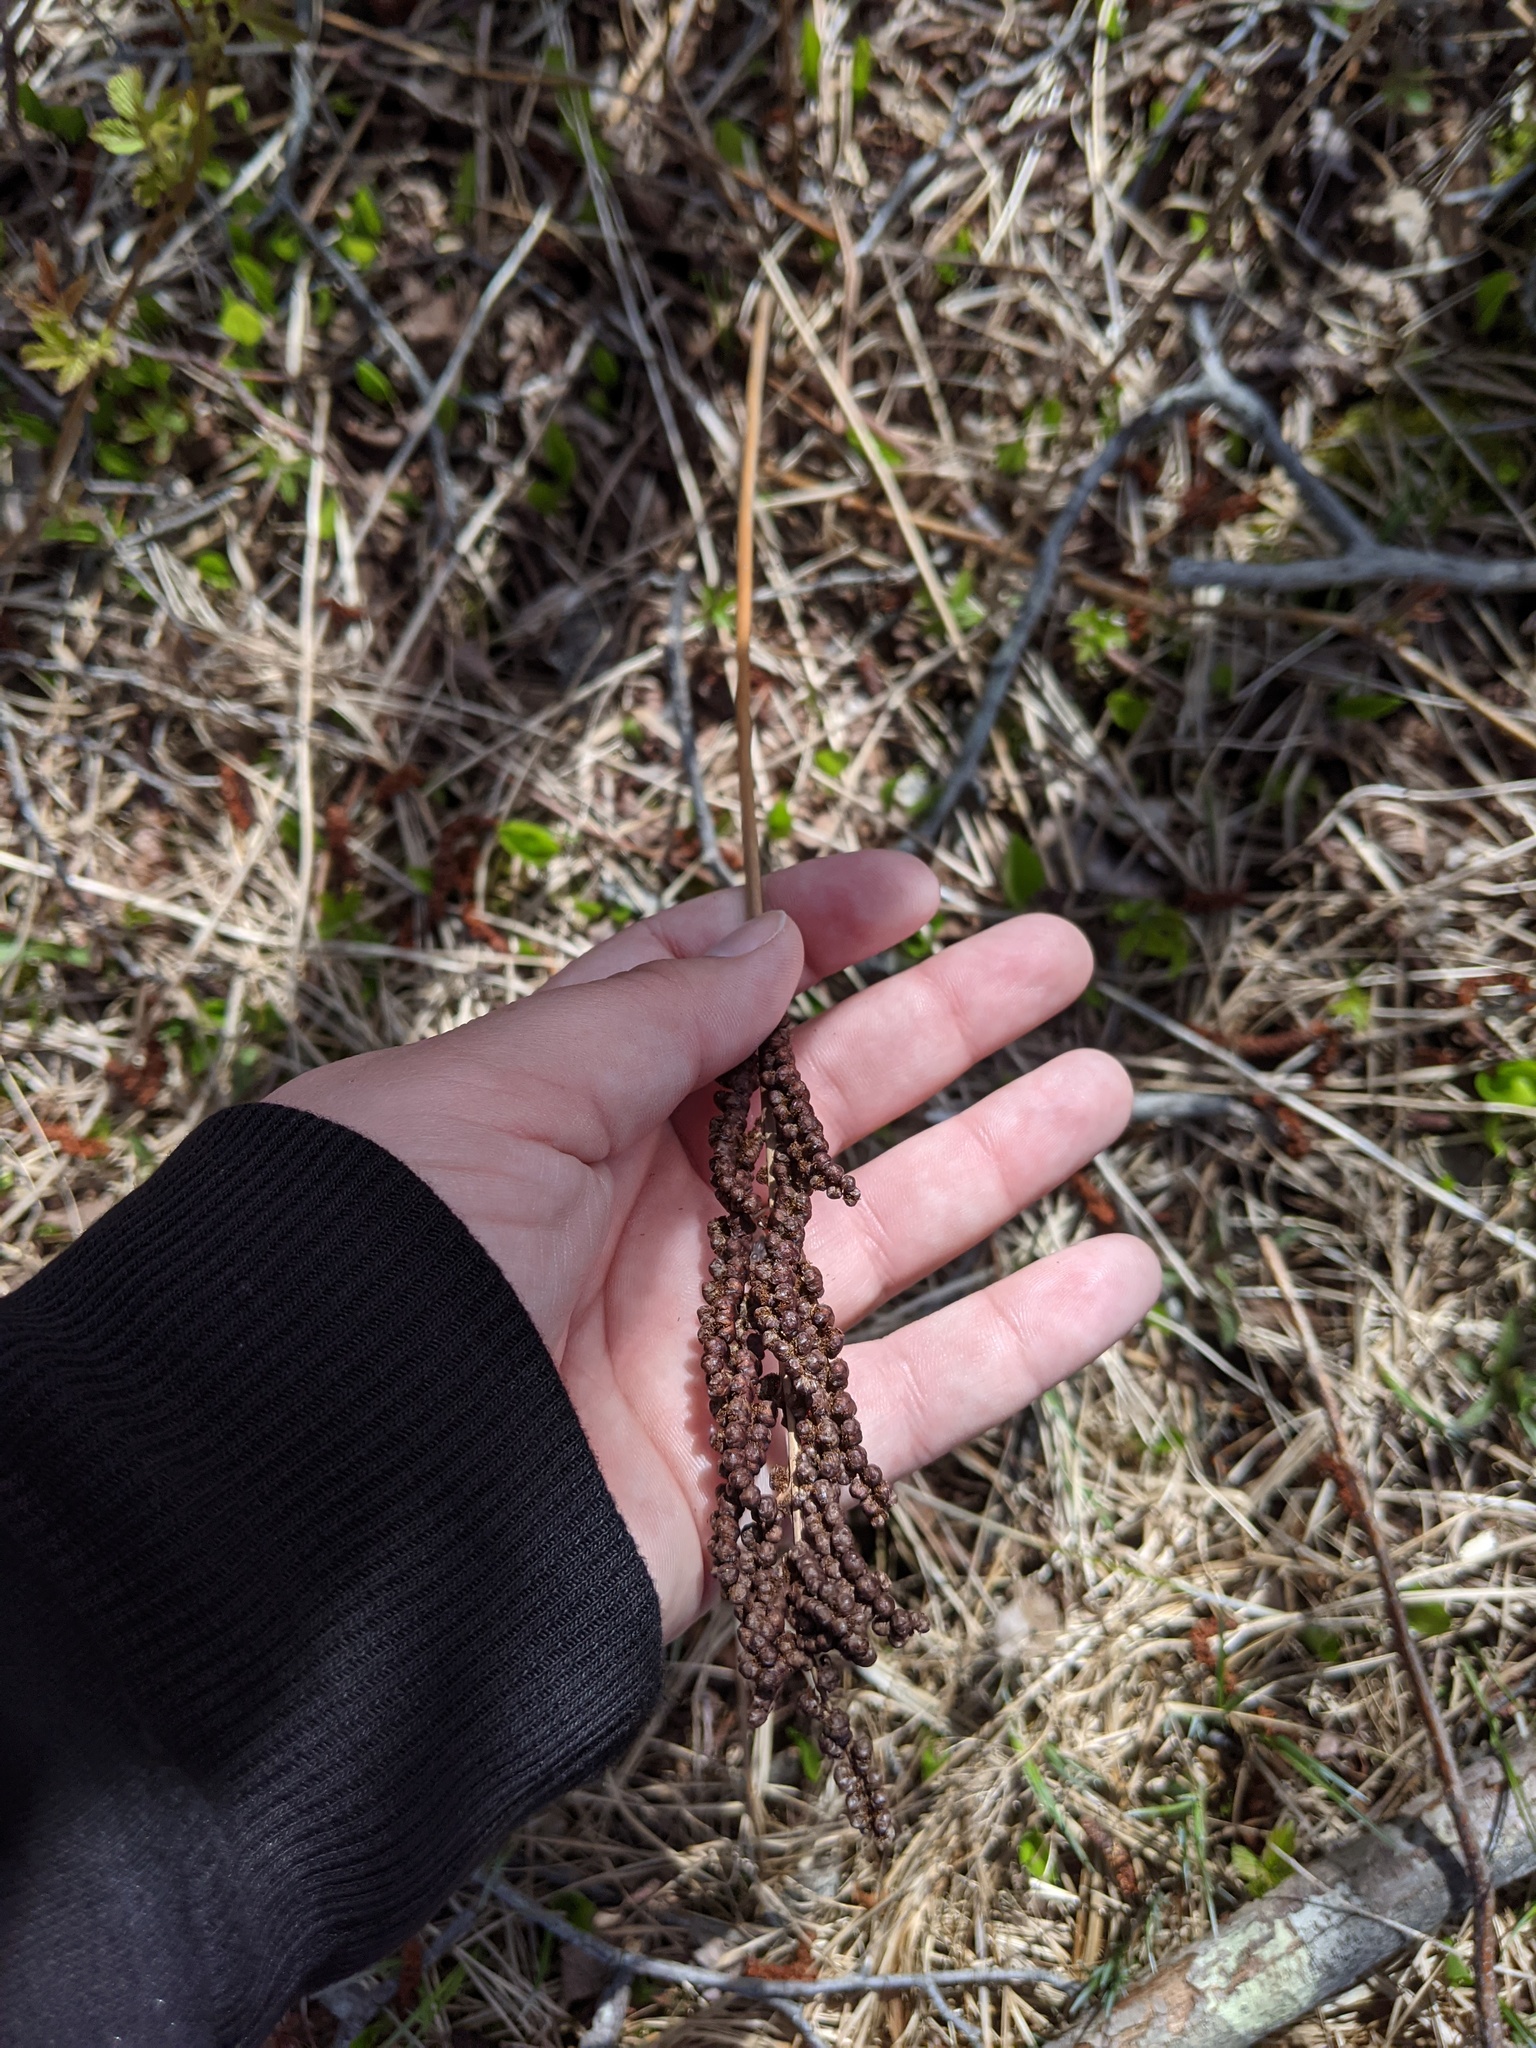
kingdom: Plantae
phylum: Tracheophyta
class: Polypodiopsida
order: Polypodiales
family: Onocleaceae
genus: Onoclea
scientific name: Onoclea sensibilis
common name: Sensitive fern
